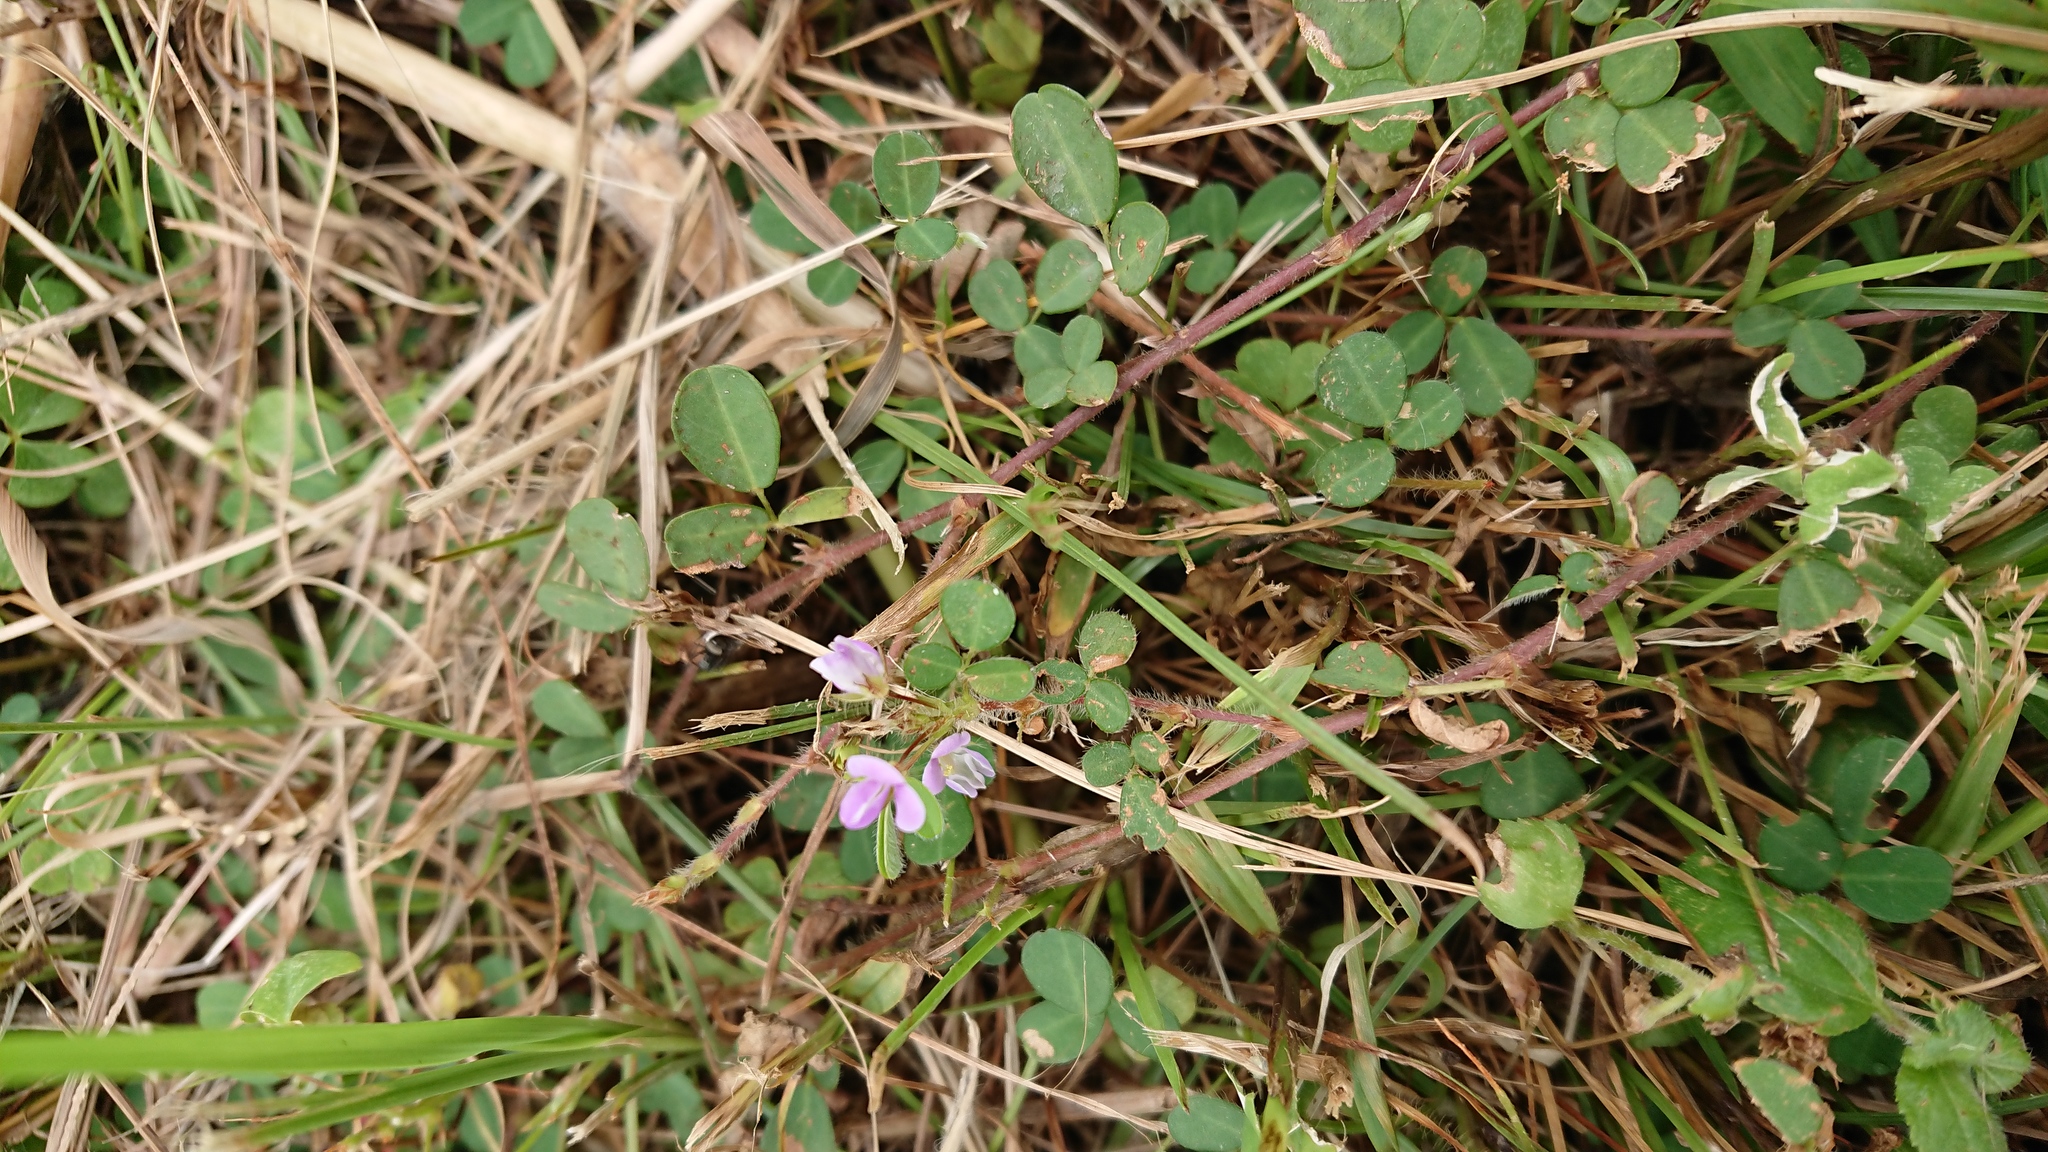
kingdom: Plantae
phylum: Tracheophyta
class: Magnoliopsida
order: Fabales
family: Fabaceae
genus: Grona
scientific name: Grona triflora
